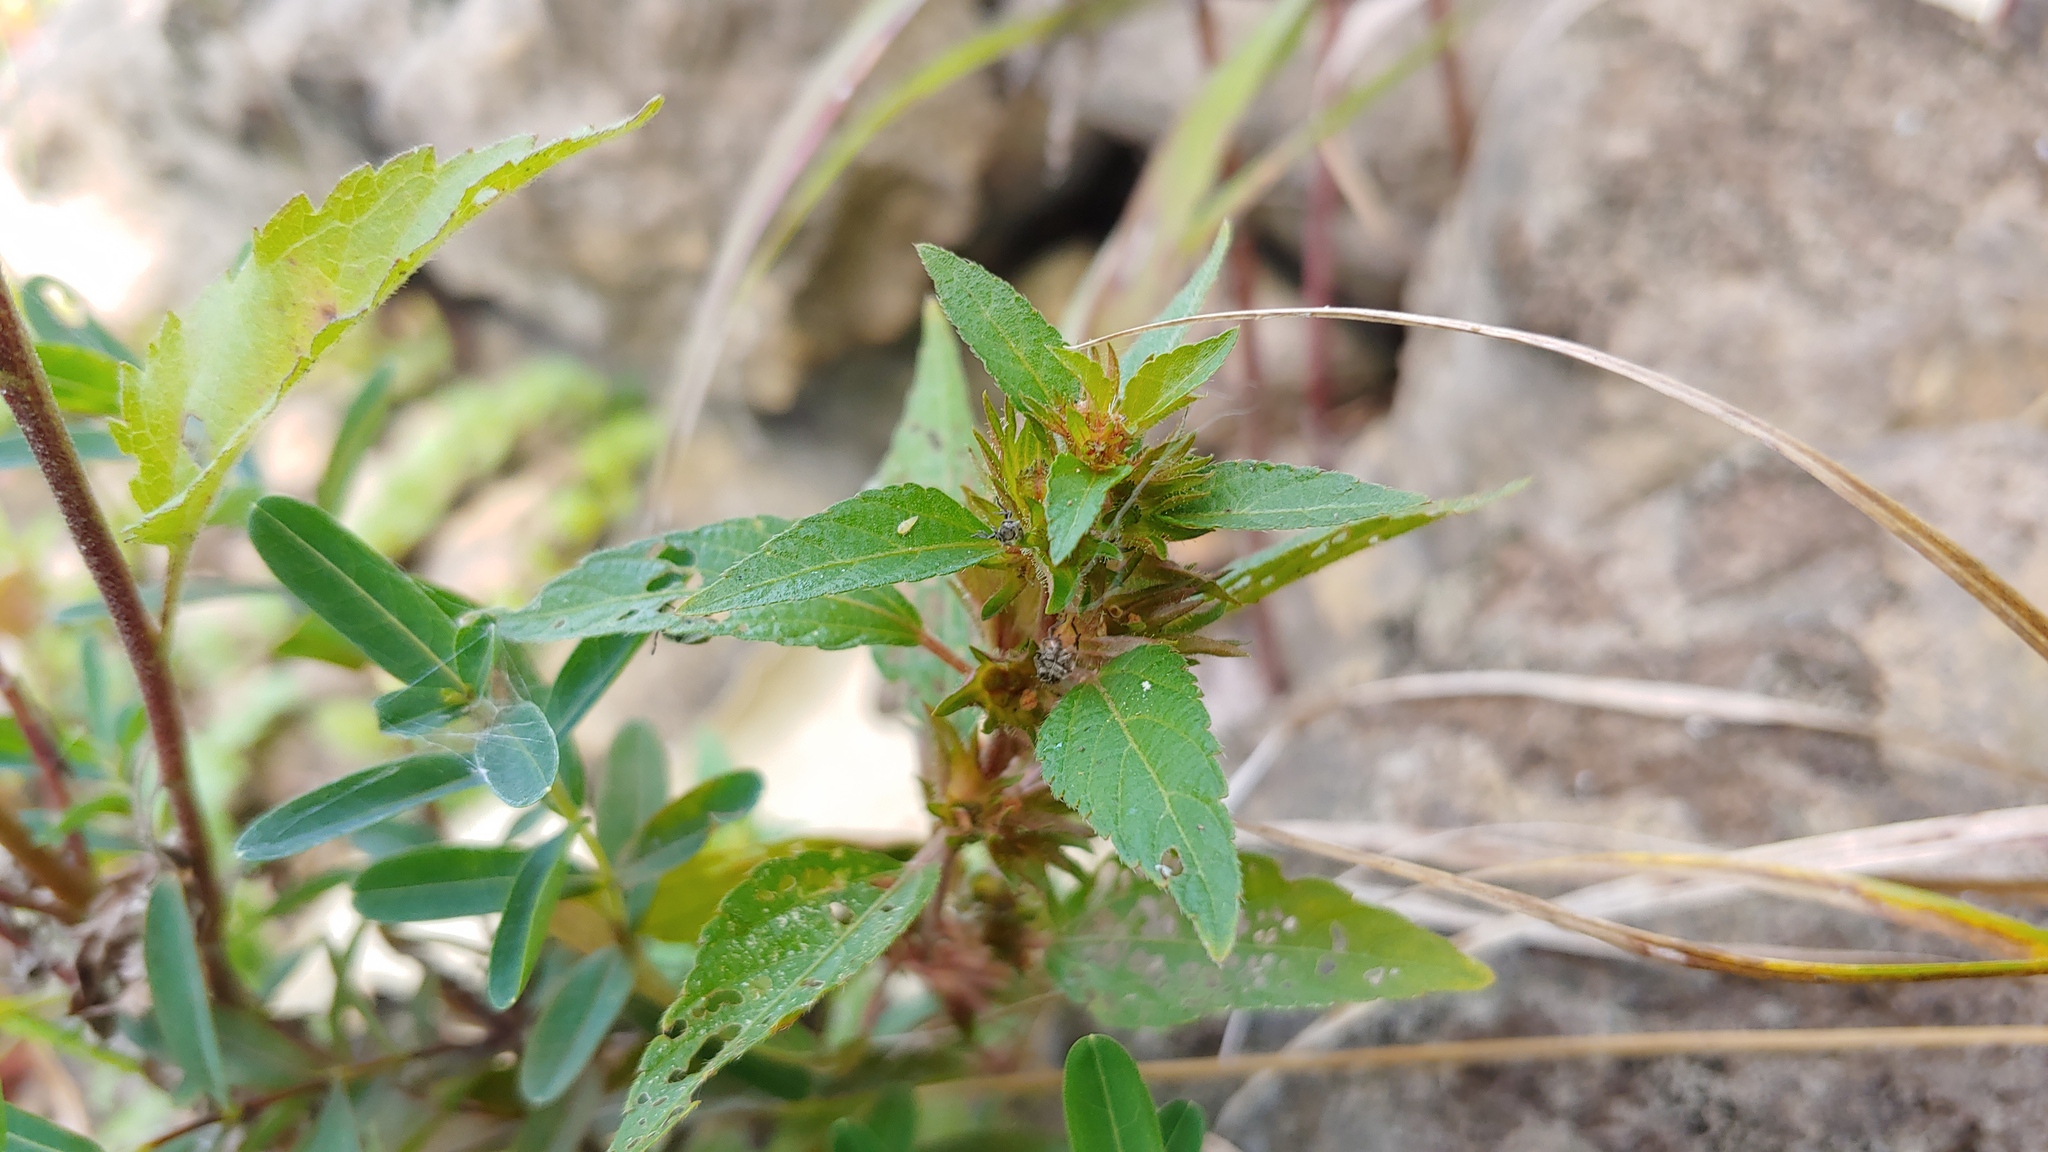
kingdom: Plantae
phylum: Tracheophyta
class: Magnoliopsida
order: Malpighiales
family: Euphorbiaceae
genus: Acalypha
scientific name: Acalypha rhomboidea
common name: Rhombic copperleaf
